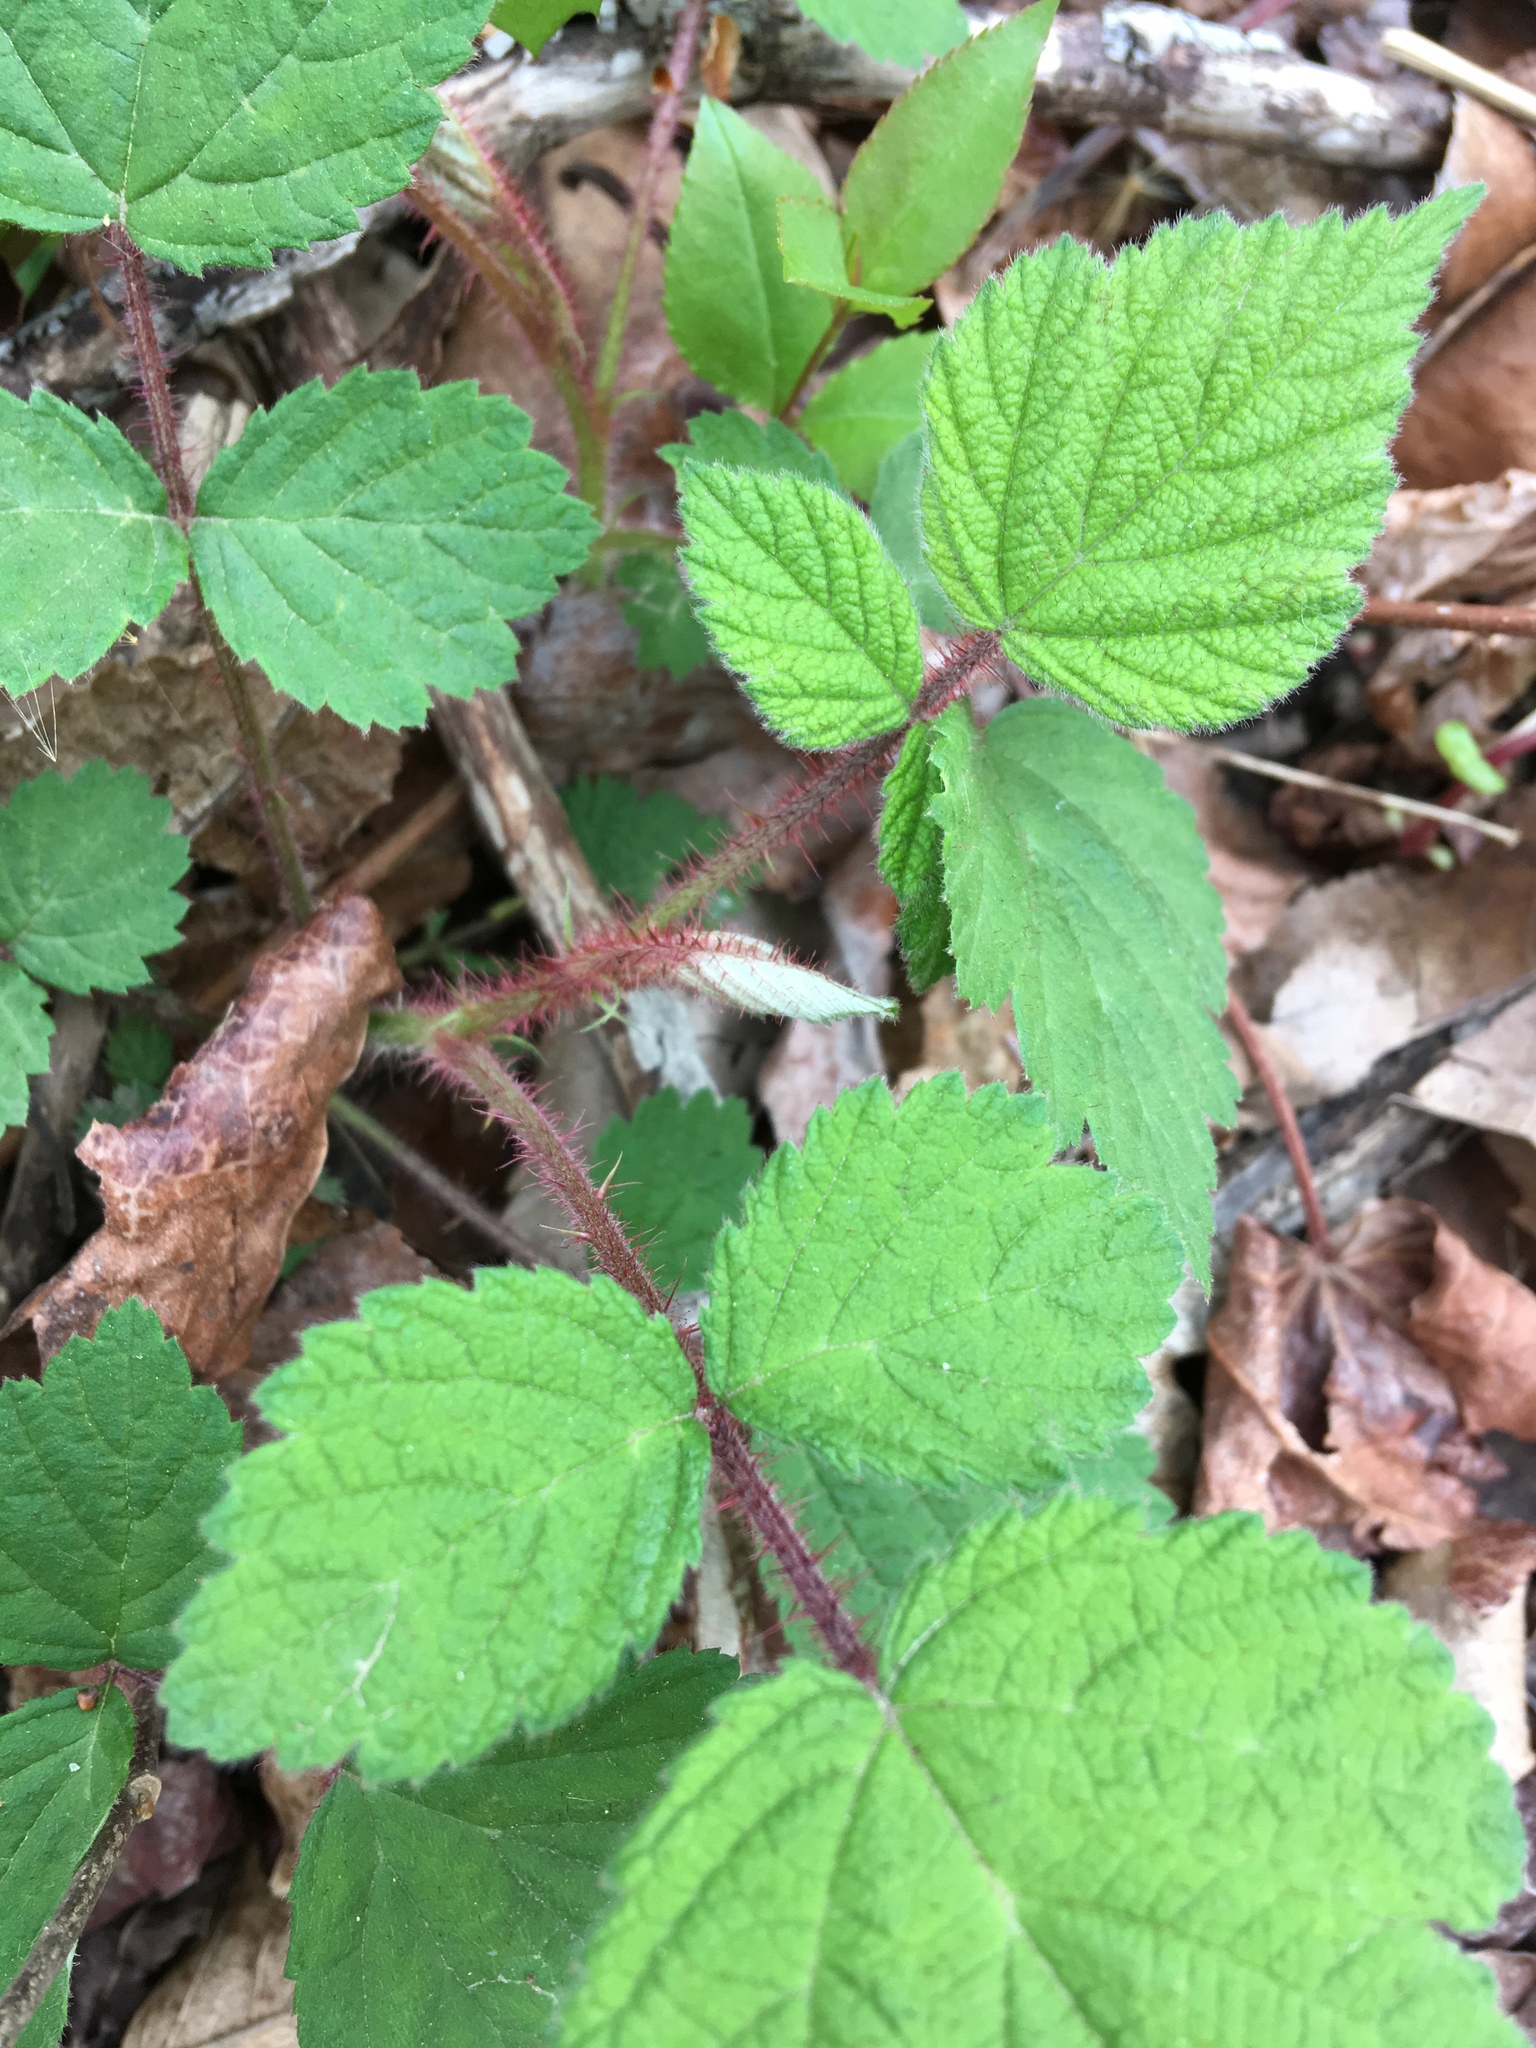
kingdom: Plantae
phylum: Tracheophyta
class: Magnoliopsida
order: Rosales
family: Rosaceae
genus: Rubus
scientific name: Rubus phoenicolasius
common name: Japanese wineberry
